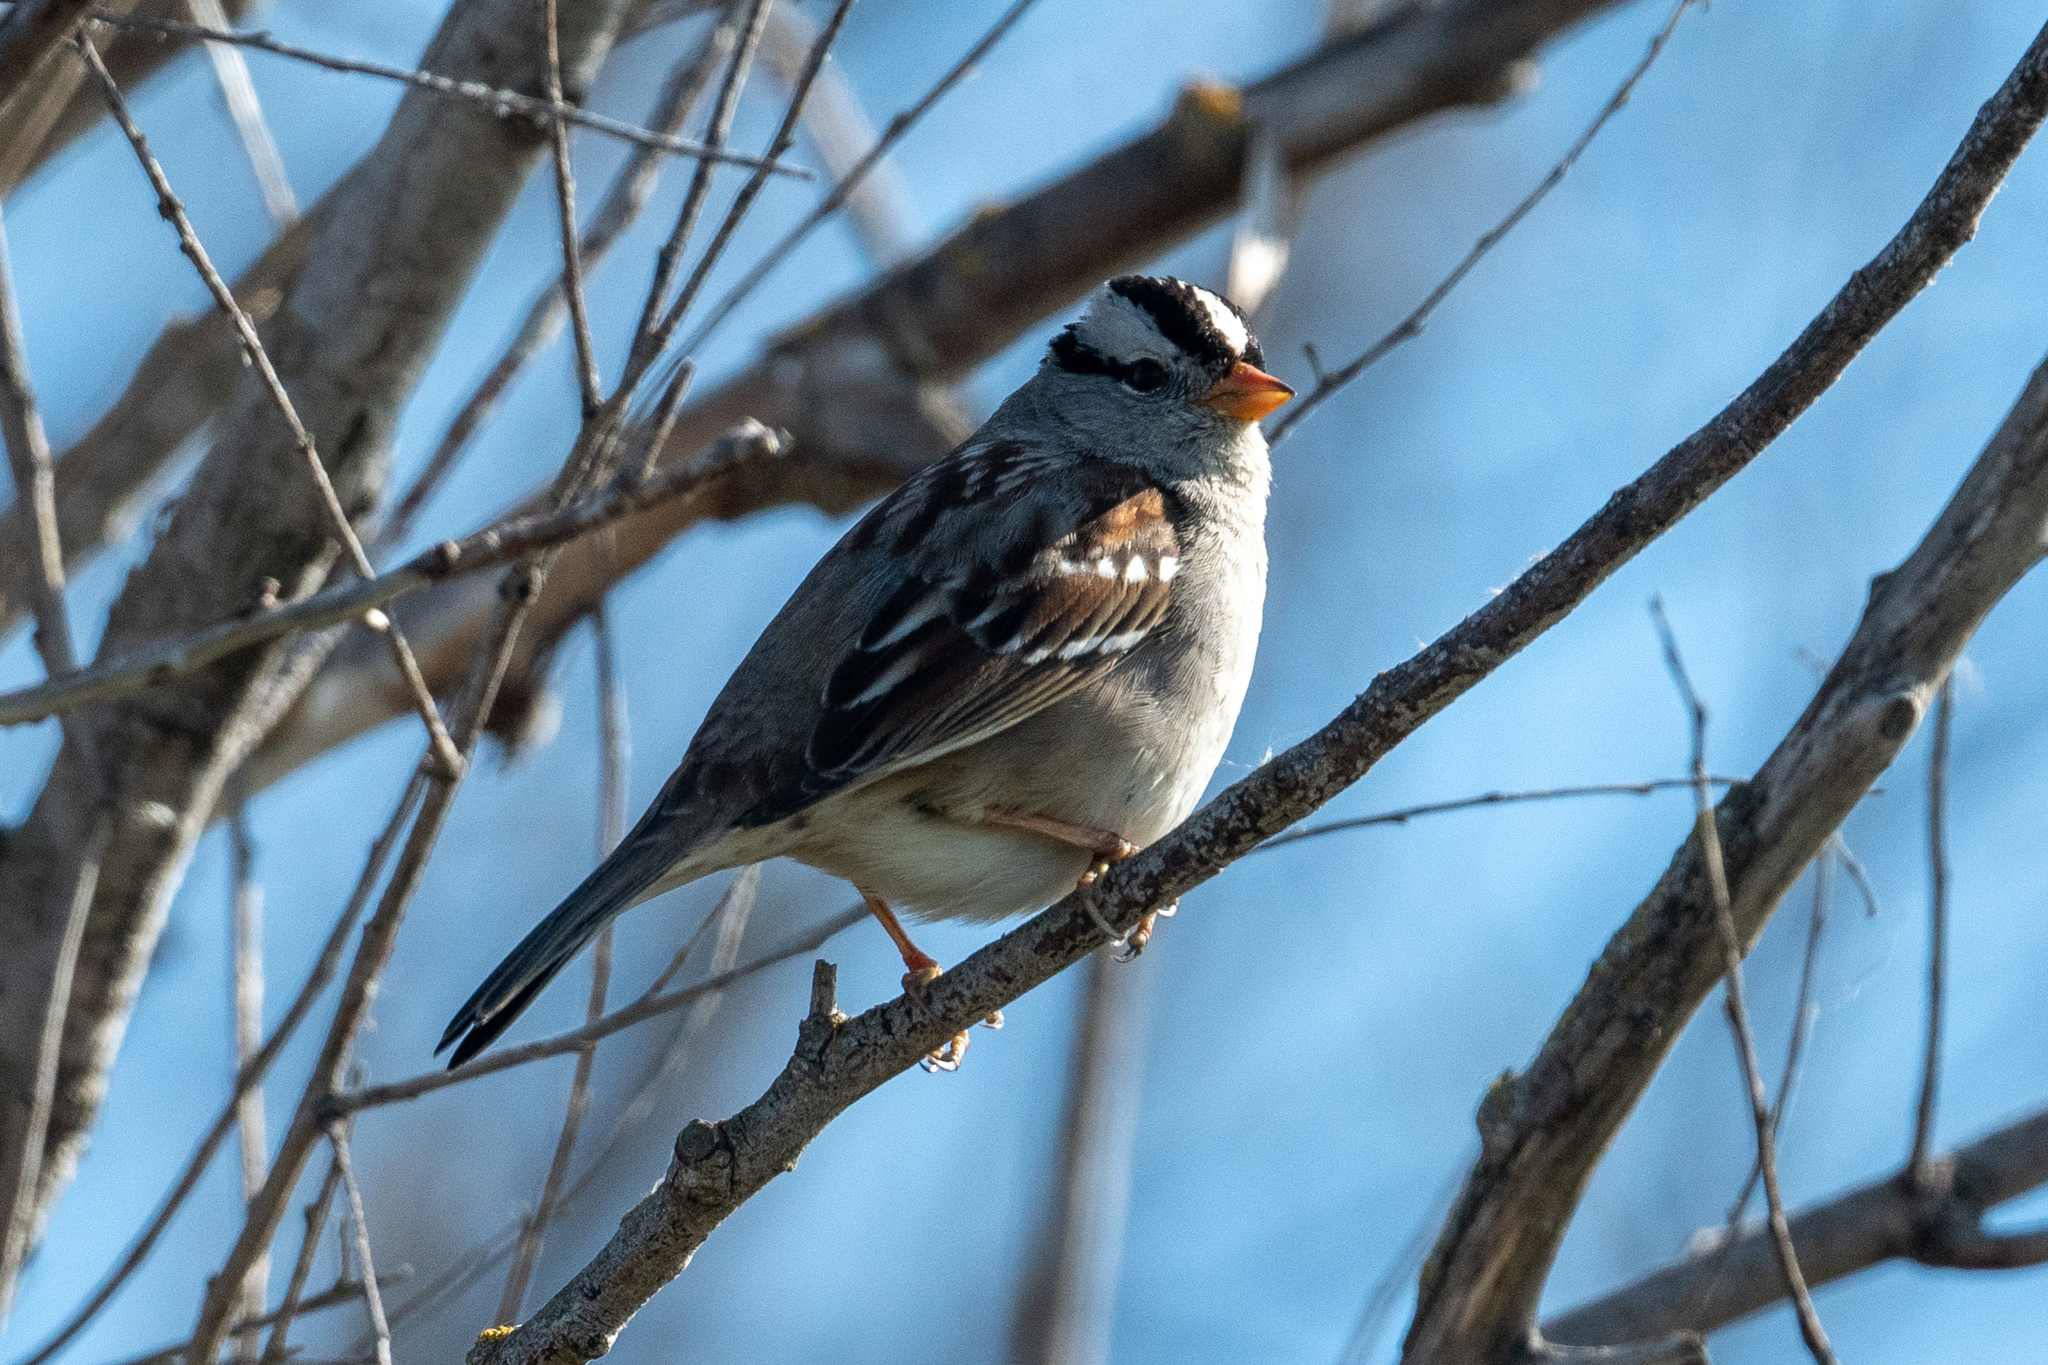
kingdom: Animalia
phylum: Chordata
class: Aves
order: Passeriformes
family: Passerellidae
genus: Zonotrichia
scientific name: Zonotrichia leucophrys
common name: White-crowned sparrow
